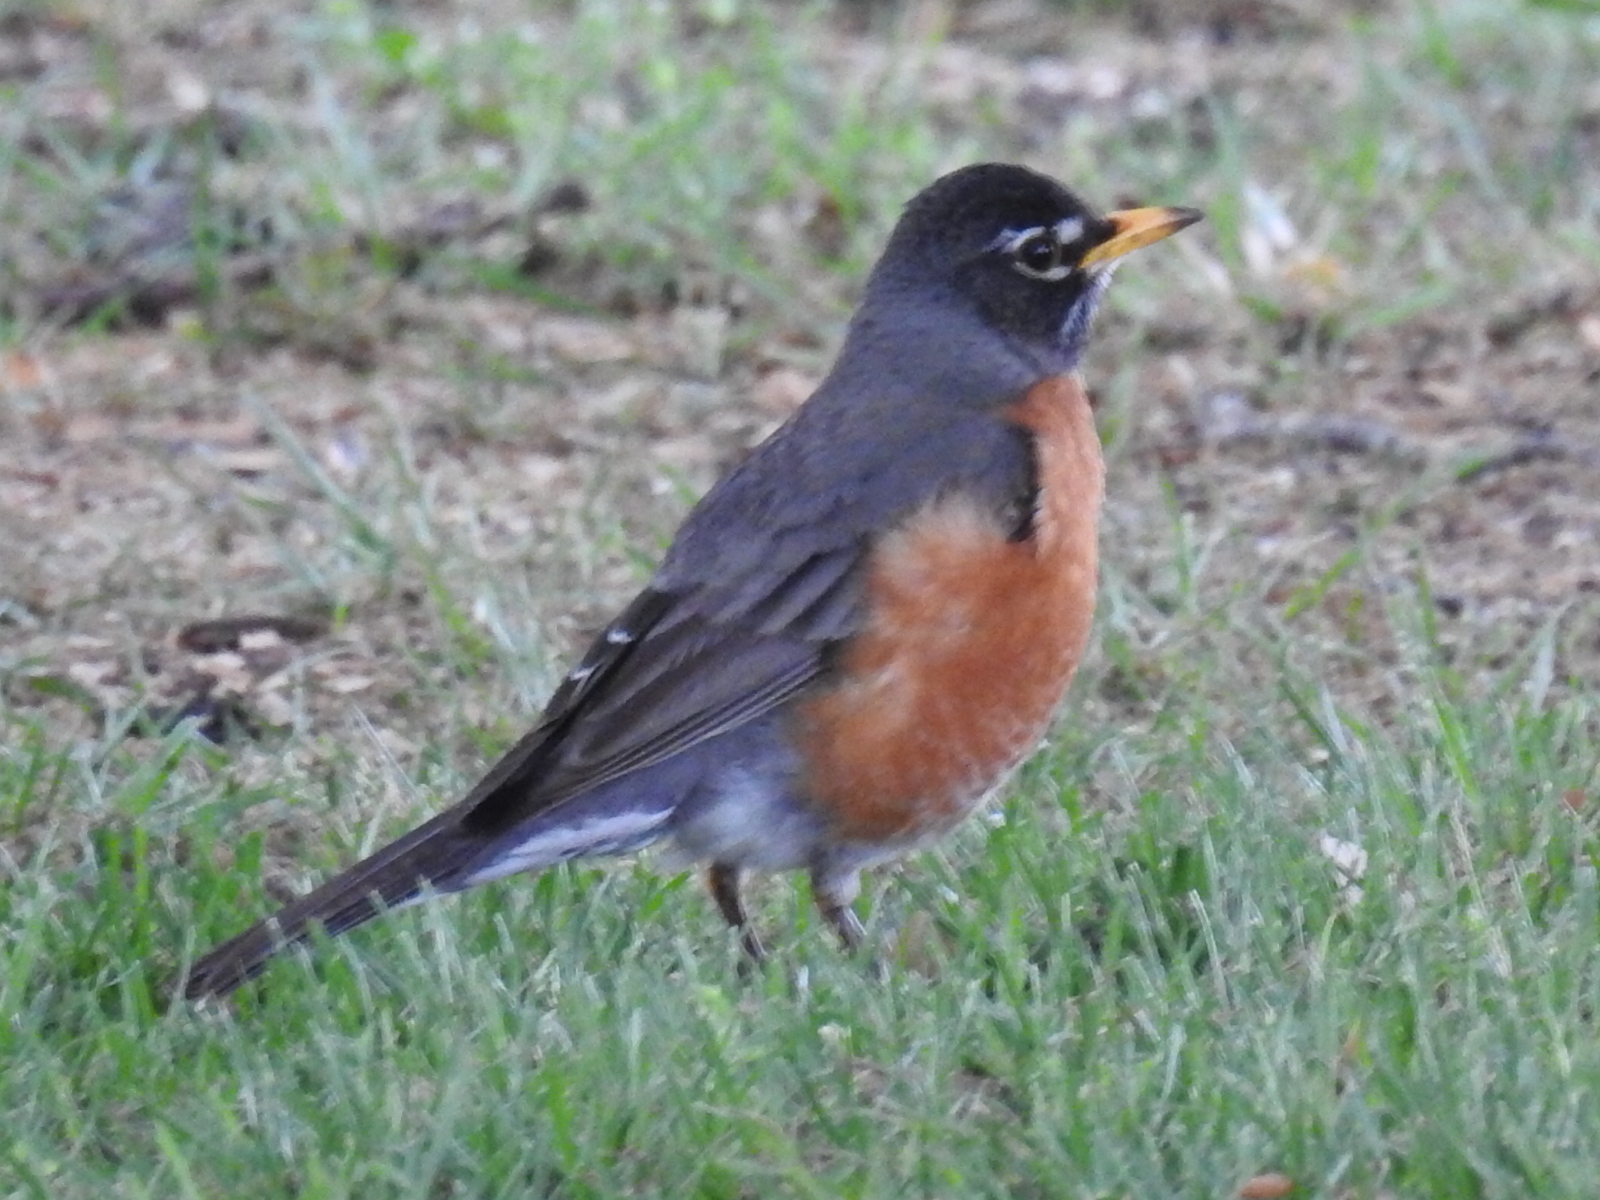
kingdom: Animalia
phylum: Chordata
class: Aves
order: Passeriformes
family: Turdidae
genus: Turdus
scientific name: Turdus migratorius
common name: American robin
